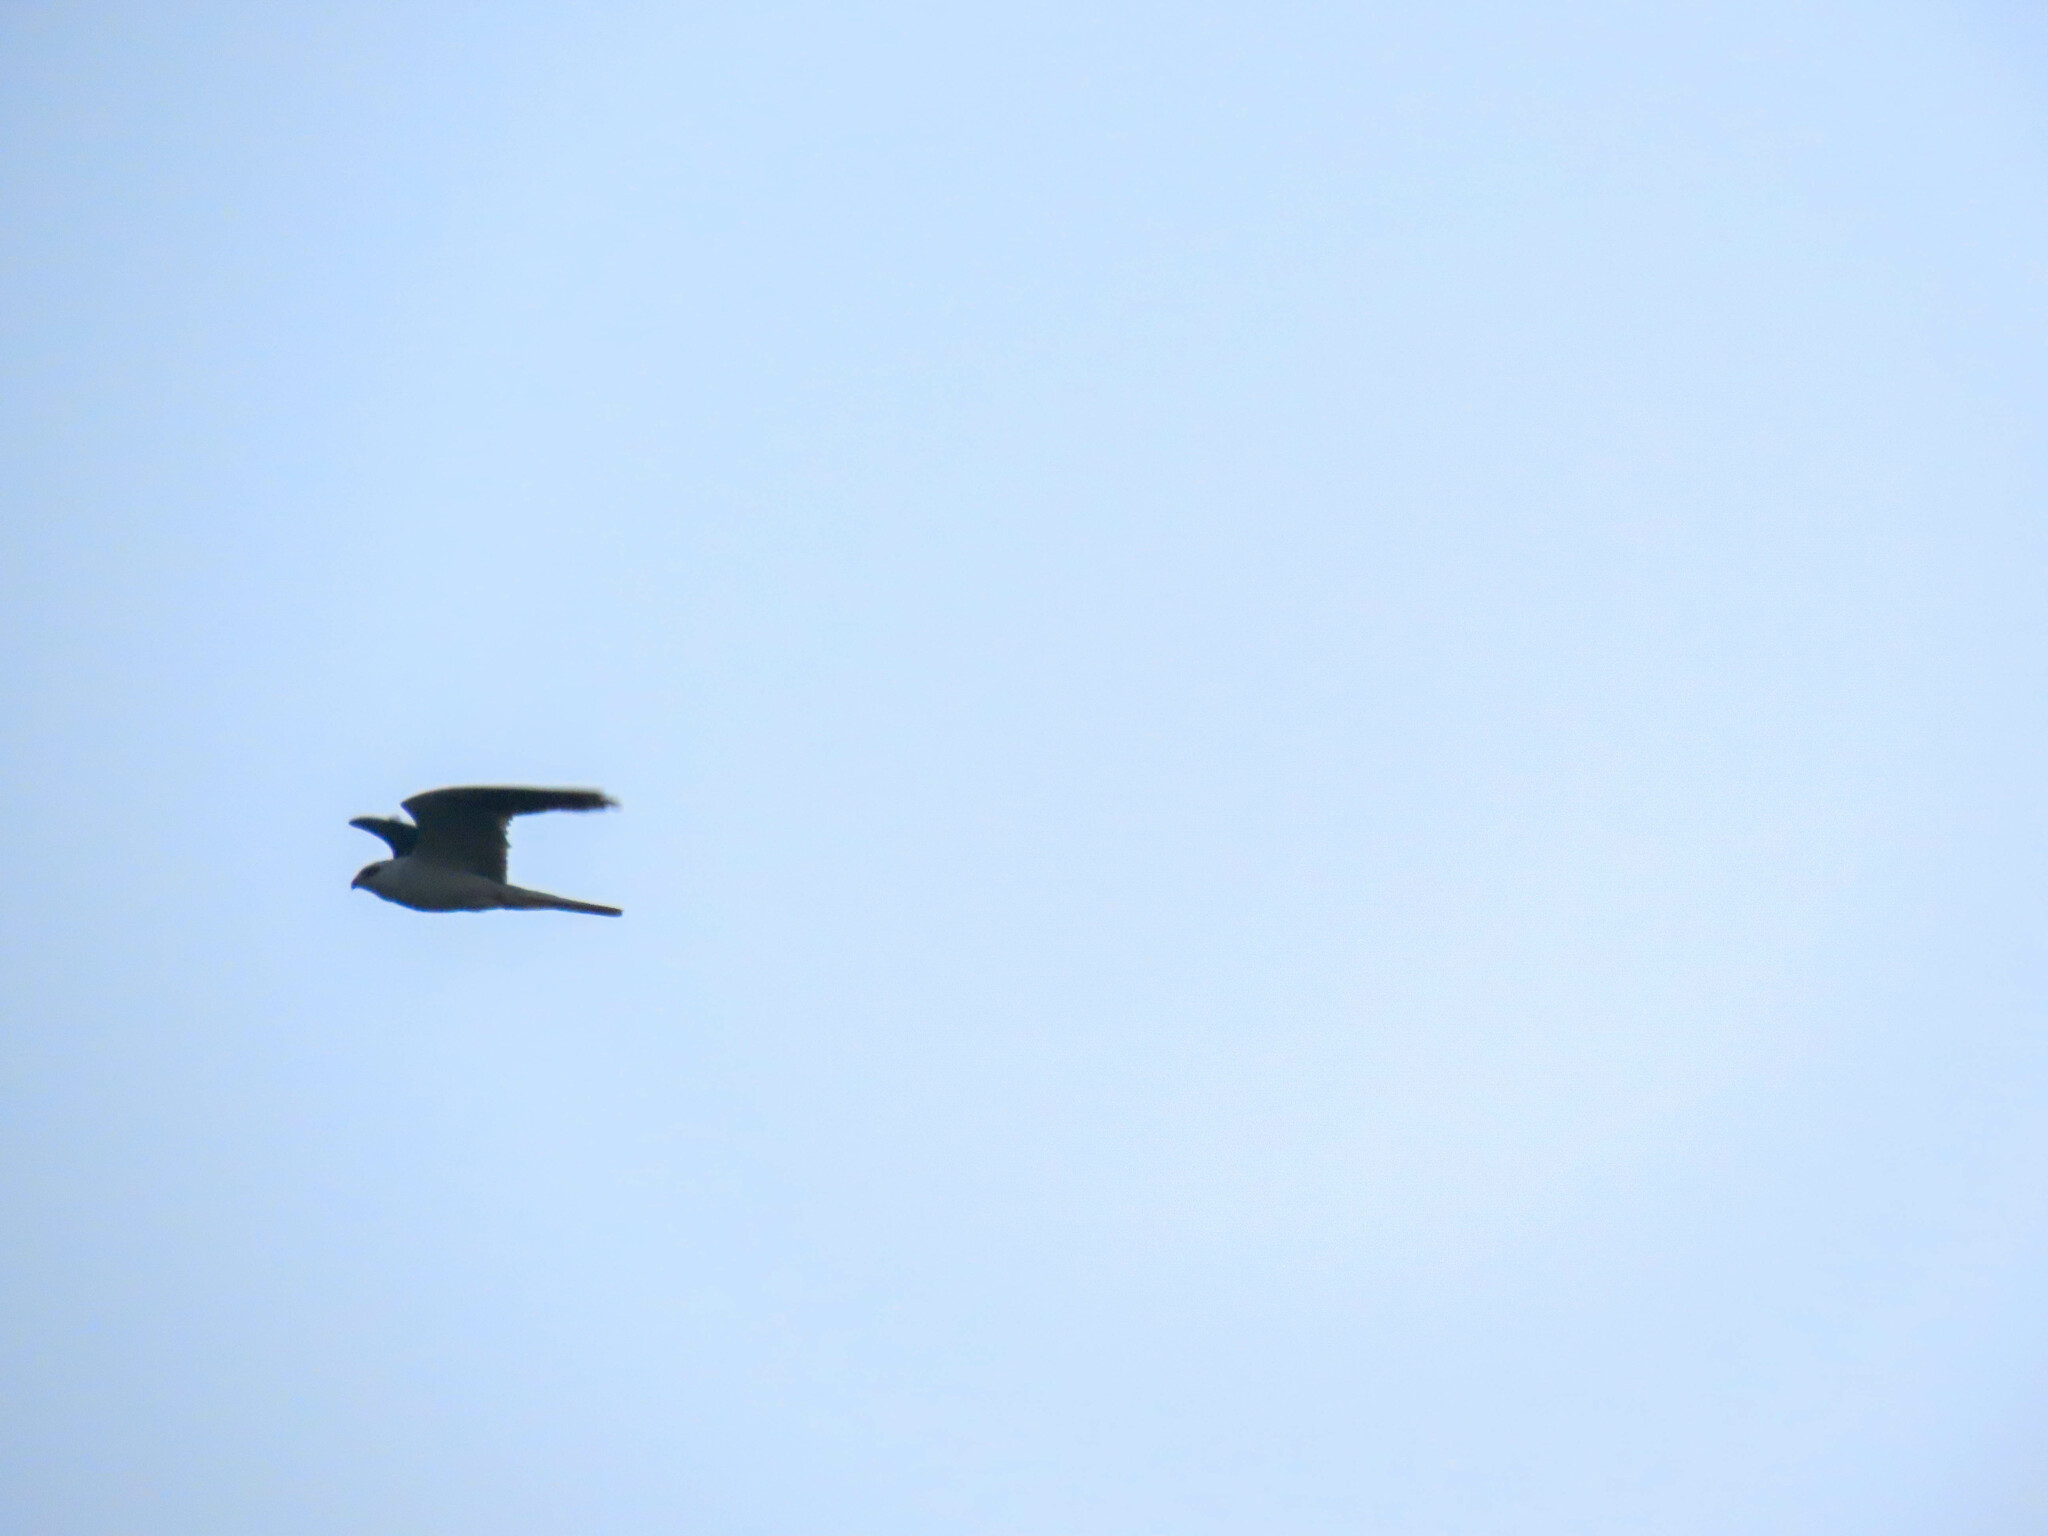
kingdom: Animalia
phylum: Chordata
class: Aves
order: Accipitriformes
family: Accipitridae
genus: Elanus
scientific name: Elanus leucurus
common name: White-tailed kite
